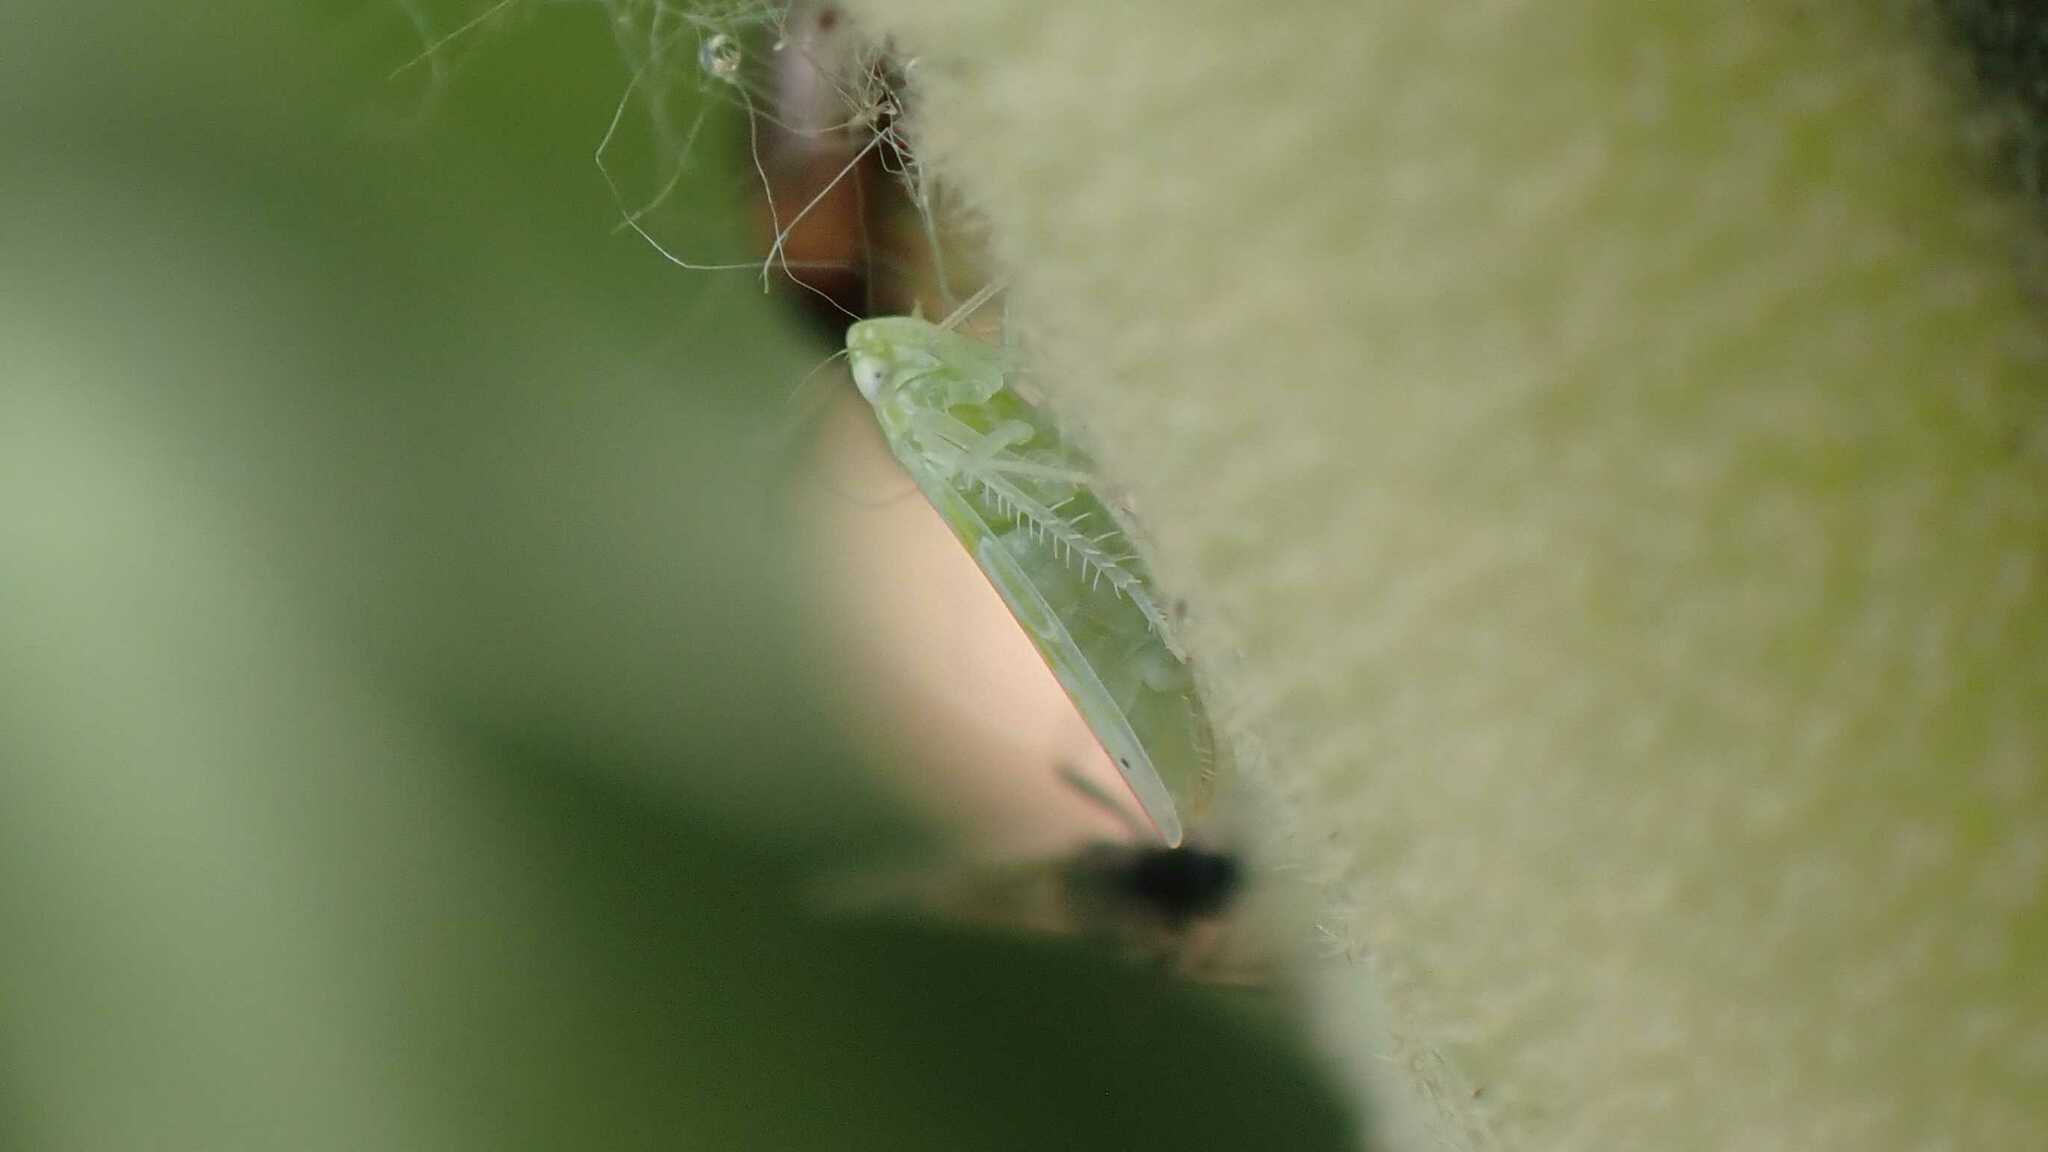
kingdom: Animalia
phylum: Arthropoda
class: Insecta
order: Hemiptera
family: Cicadellidae
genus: Micantulina
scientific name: Micantulina stigmatipennis
